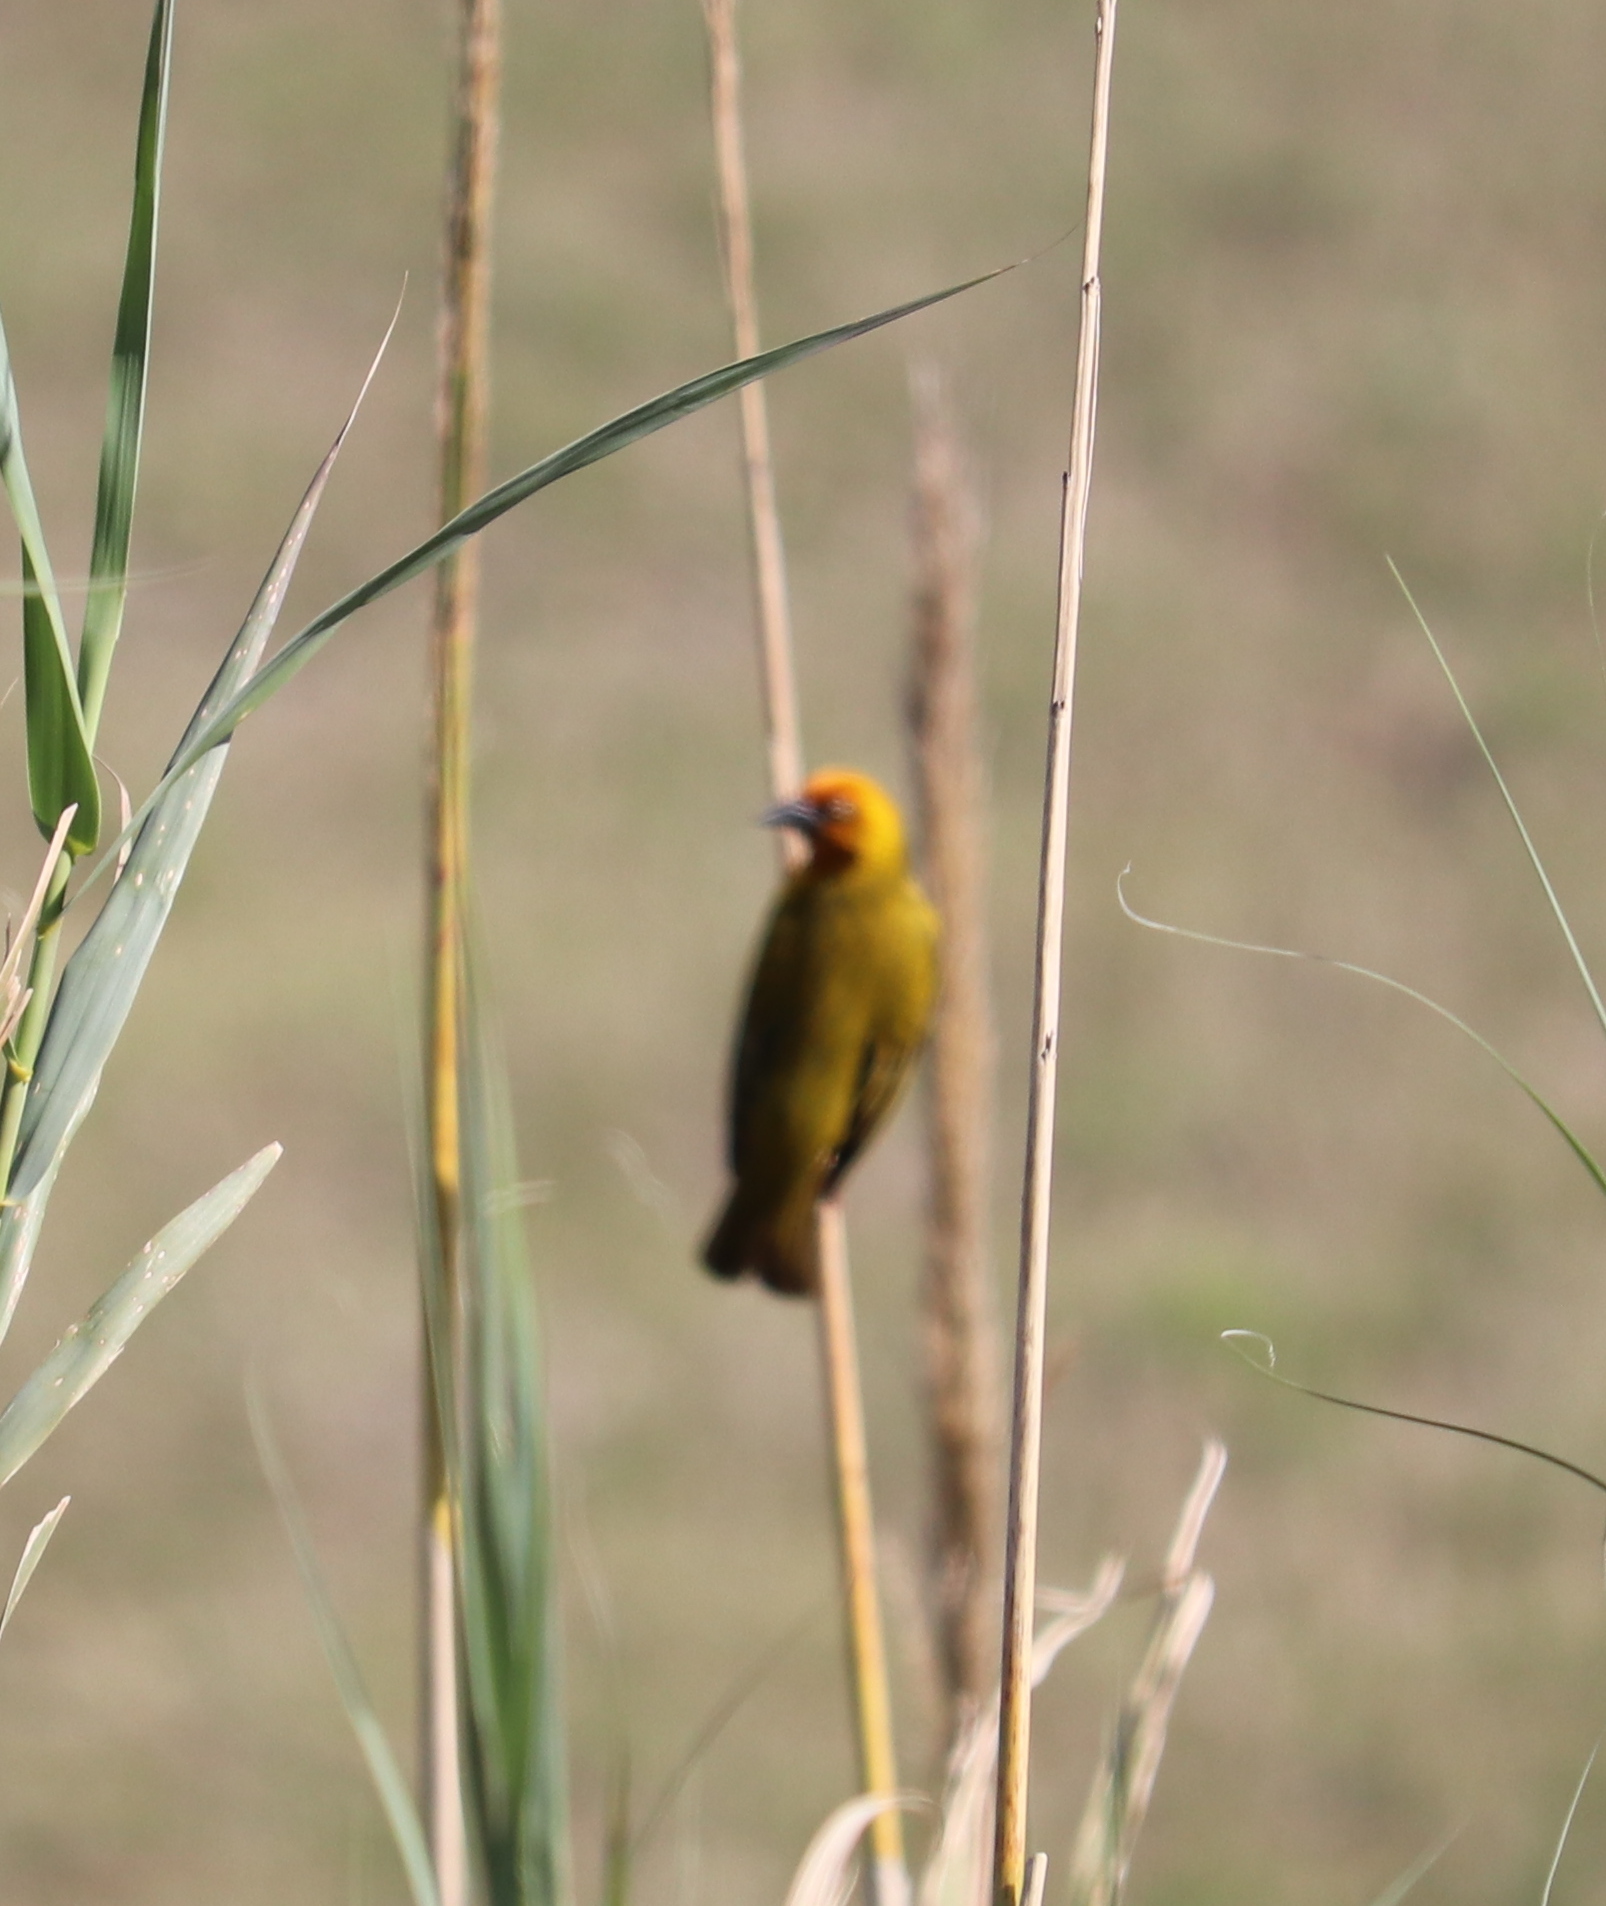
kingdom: Animalia
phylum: Chordata
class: Aves
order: Passeriformes
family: Ploceidae
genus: Ploceus
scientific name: Ploceus capensis
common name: Cape weaver
